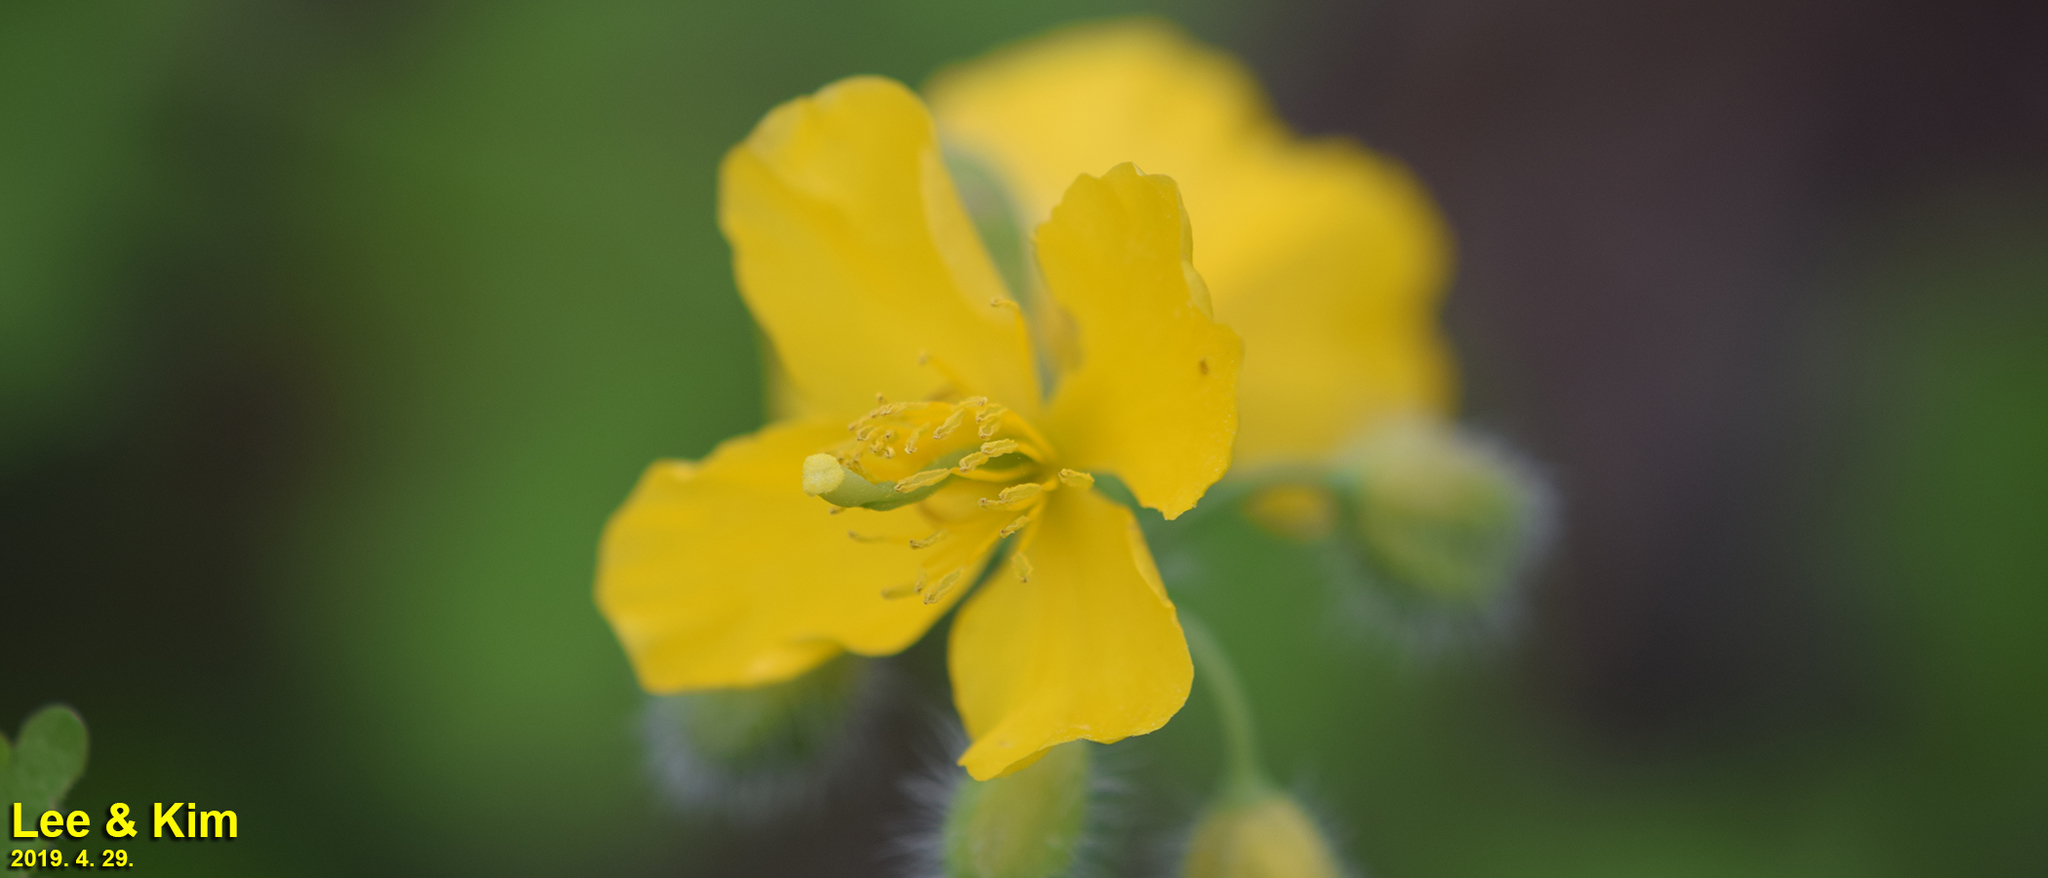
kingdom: Plantae
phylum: Tracheophyta
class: Magnoliopsida
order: Ranunculales
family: Papaveraceae
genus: Chelidonium
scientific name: Chelidonium majus
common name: Greater celandine
